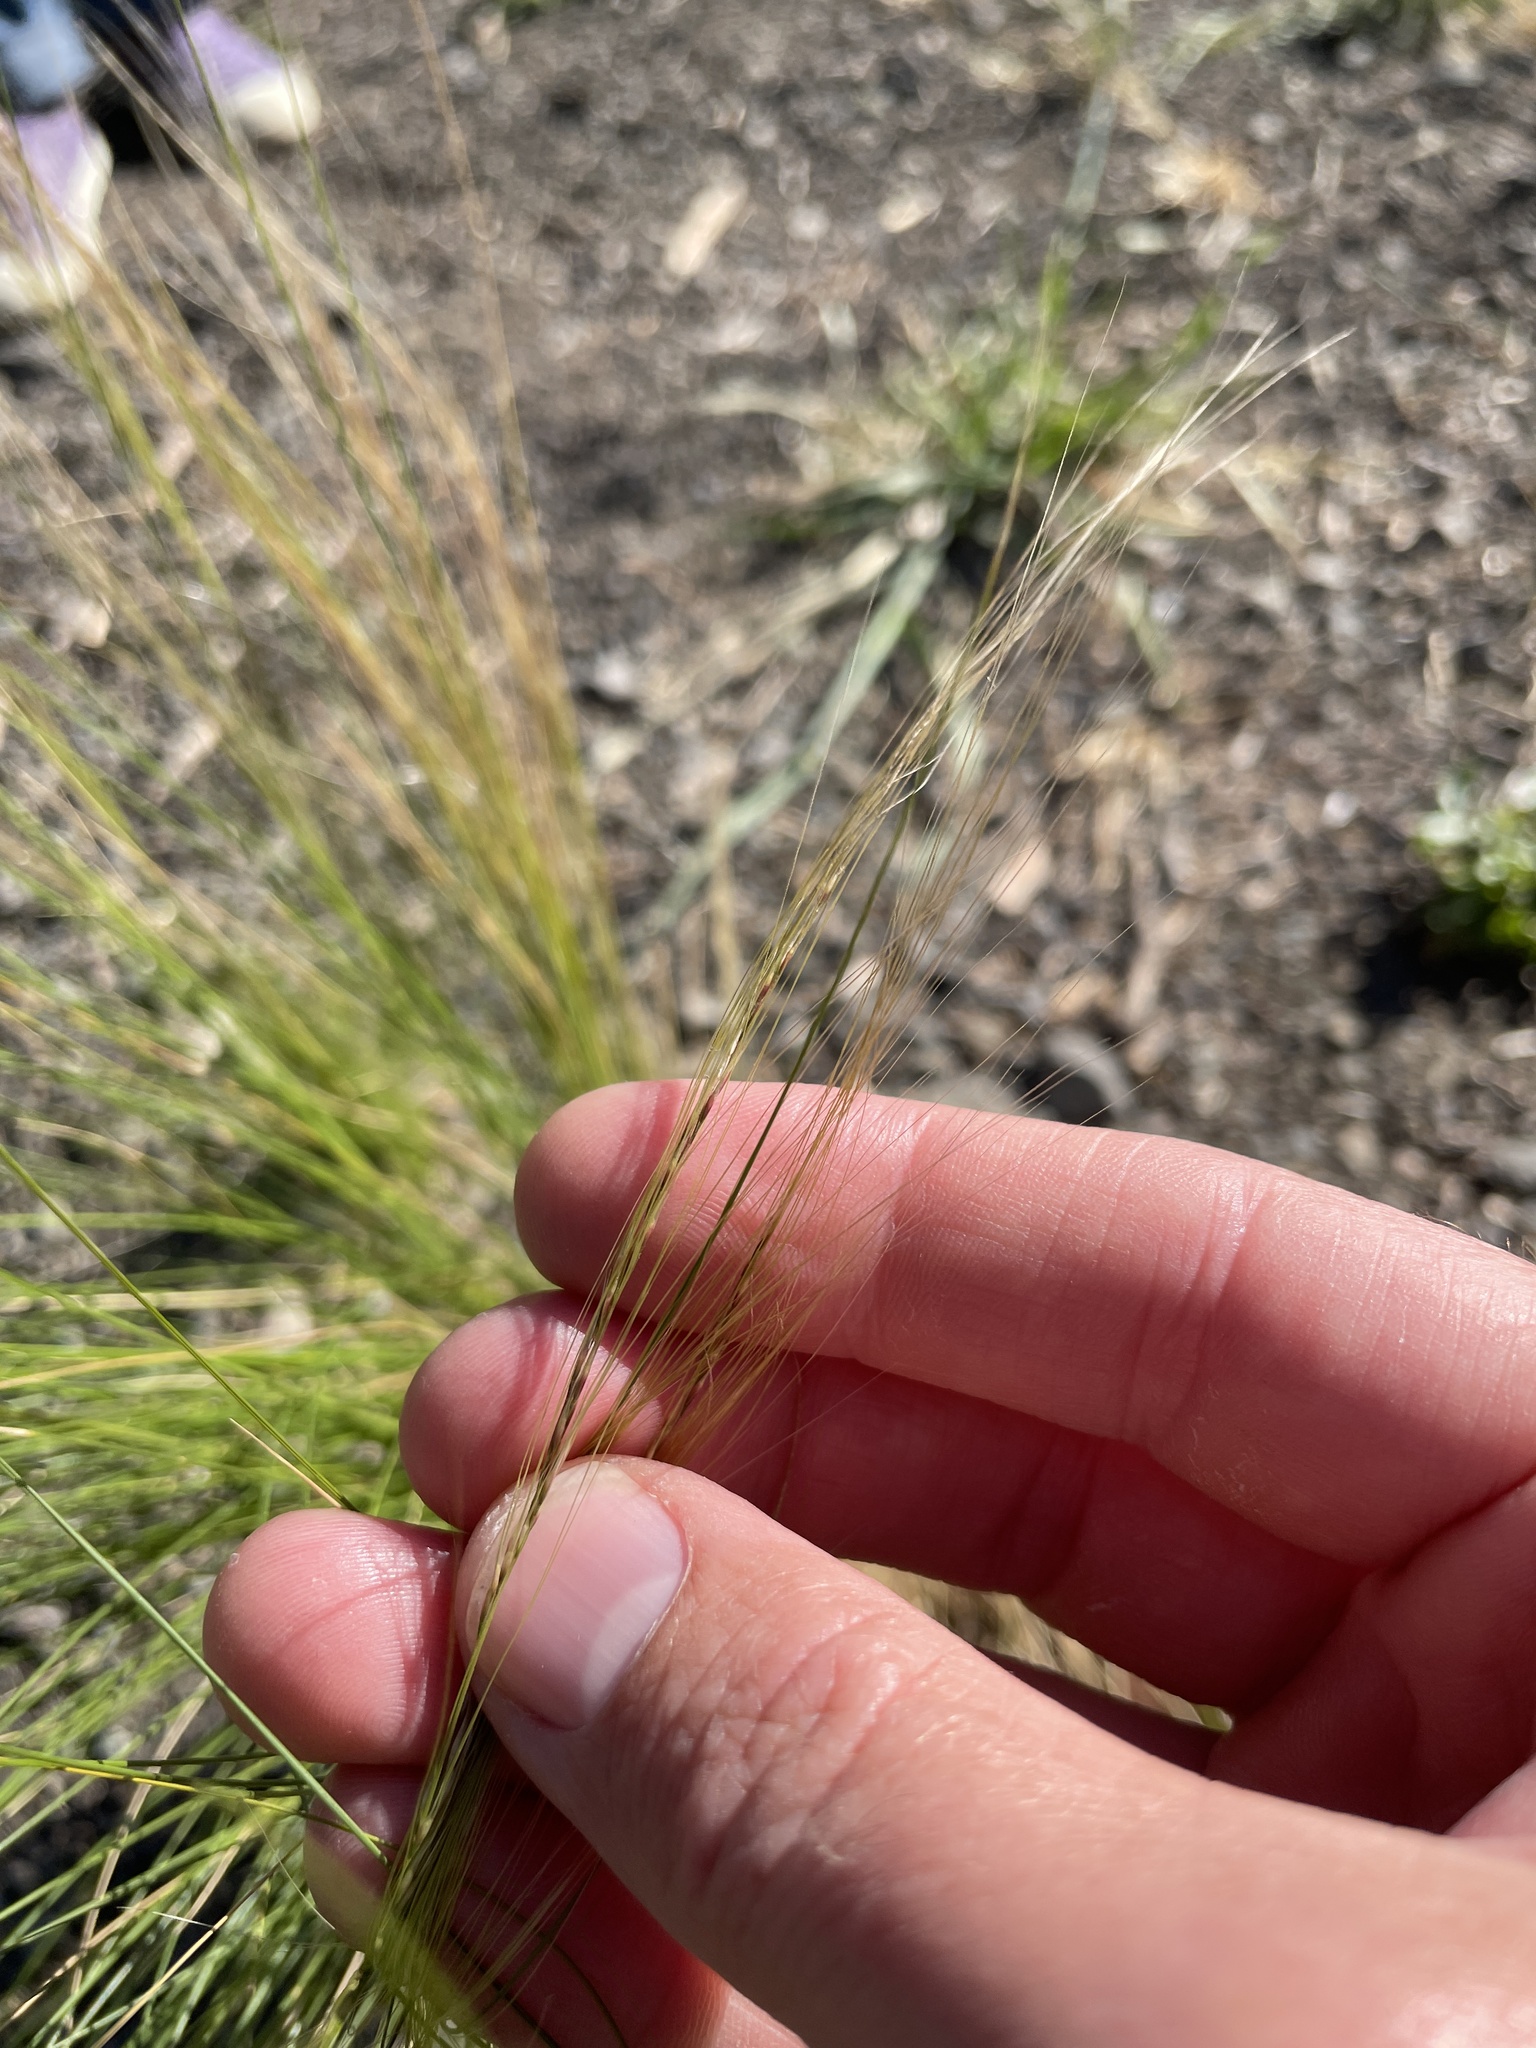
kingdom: Plantae
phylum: Tracheophyta
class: Liliopsida
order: Poales
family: Poaceae
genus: Nassella
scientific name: Nassella tenuissima
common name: Argentine needlegrass
